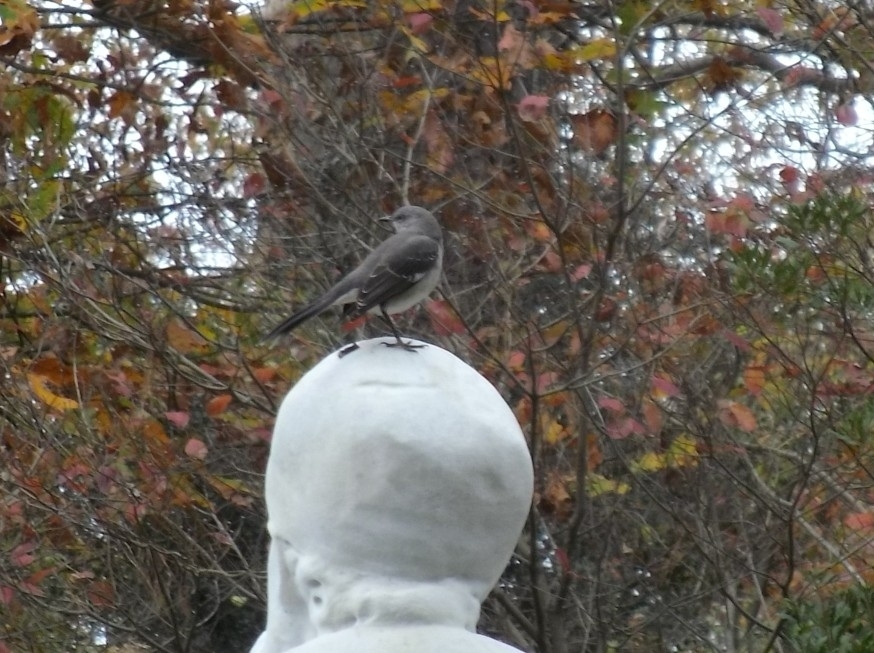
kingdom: Animalia
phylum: Chordata
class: Aves
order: Passeriformes
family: Mimidae
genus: Mimus
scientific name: Mimus polyglottos
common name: Northern mockingbird
